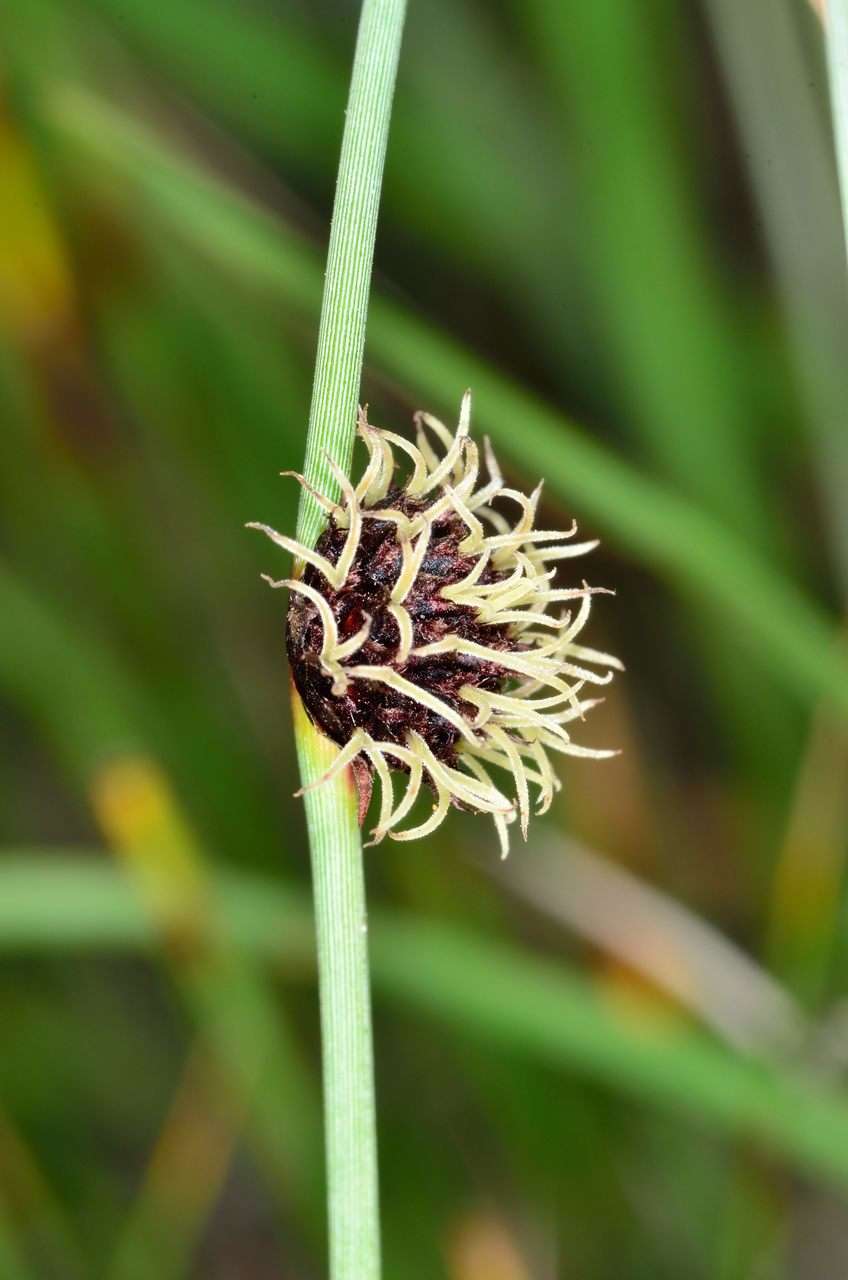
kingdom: Plantae
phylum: Tracheophyta
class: Liliopsida
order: Poales
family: Cyperaceae
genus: Chorizandra
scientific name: Chorizandra enodis
